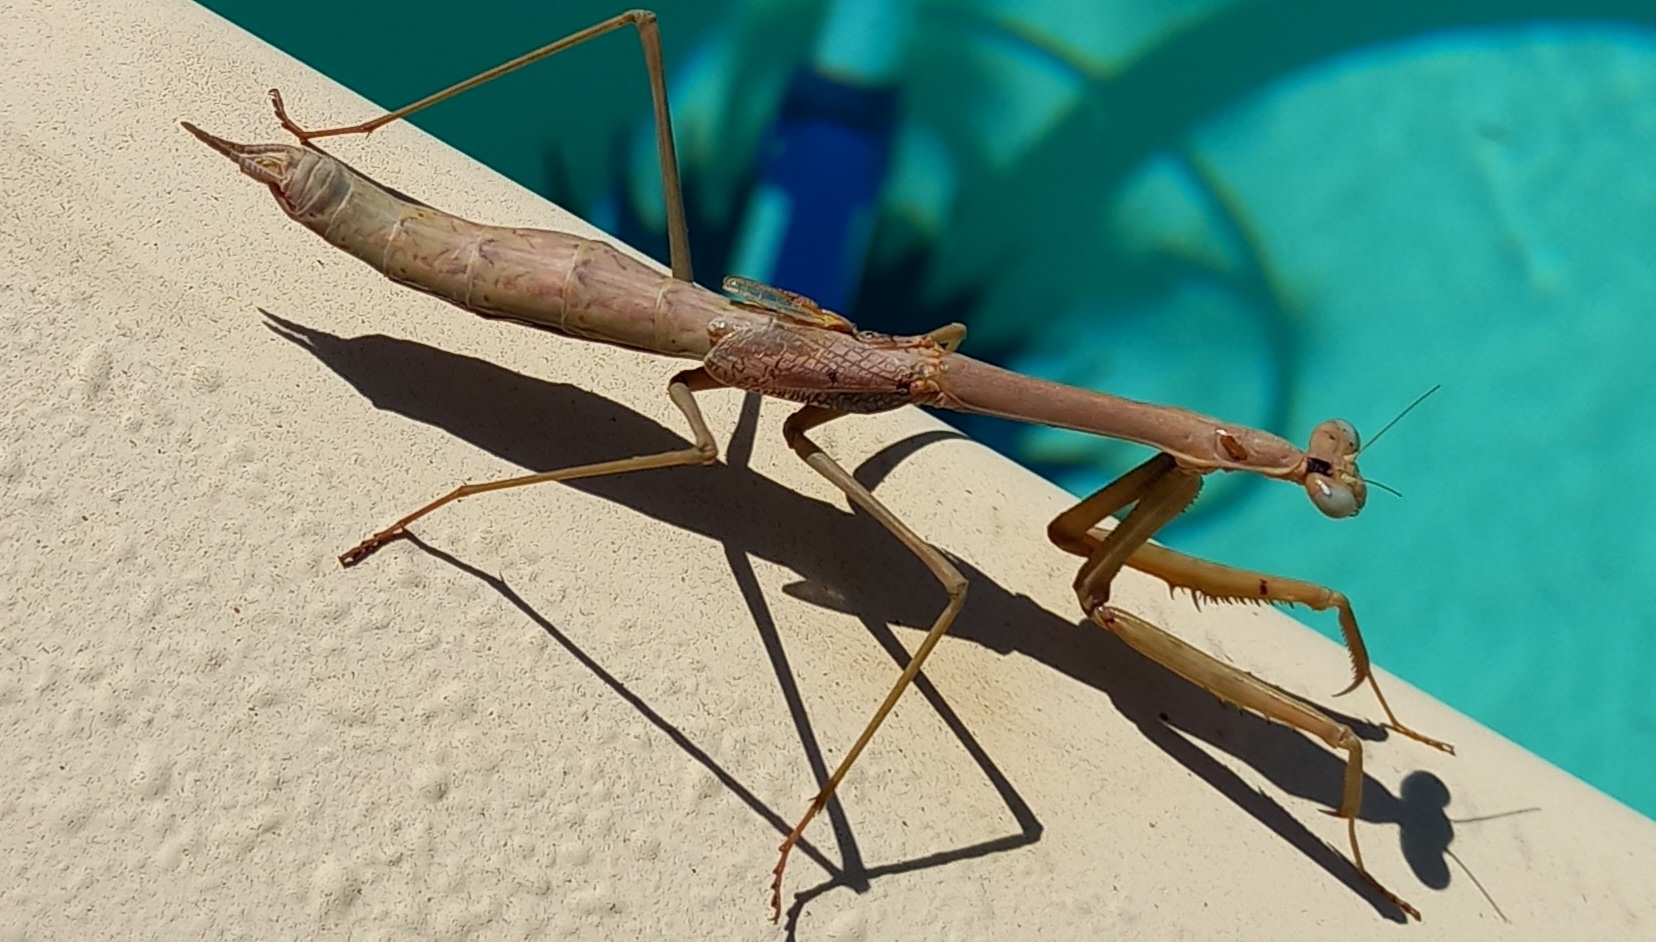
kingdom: Animalia
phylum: Arthropoda
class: Insecta
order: Mantodea
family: Mantidae
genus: Archimantis
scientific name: Archimantis sobrina
